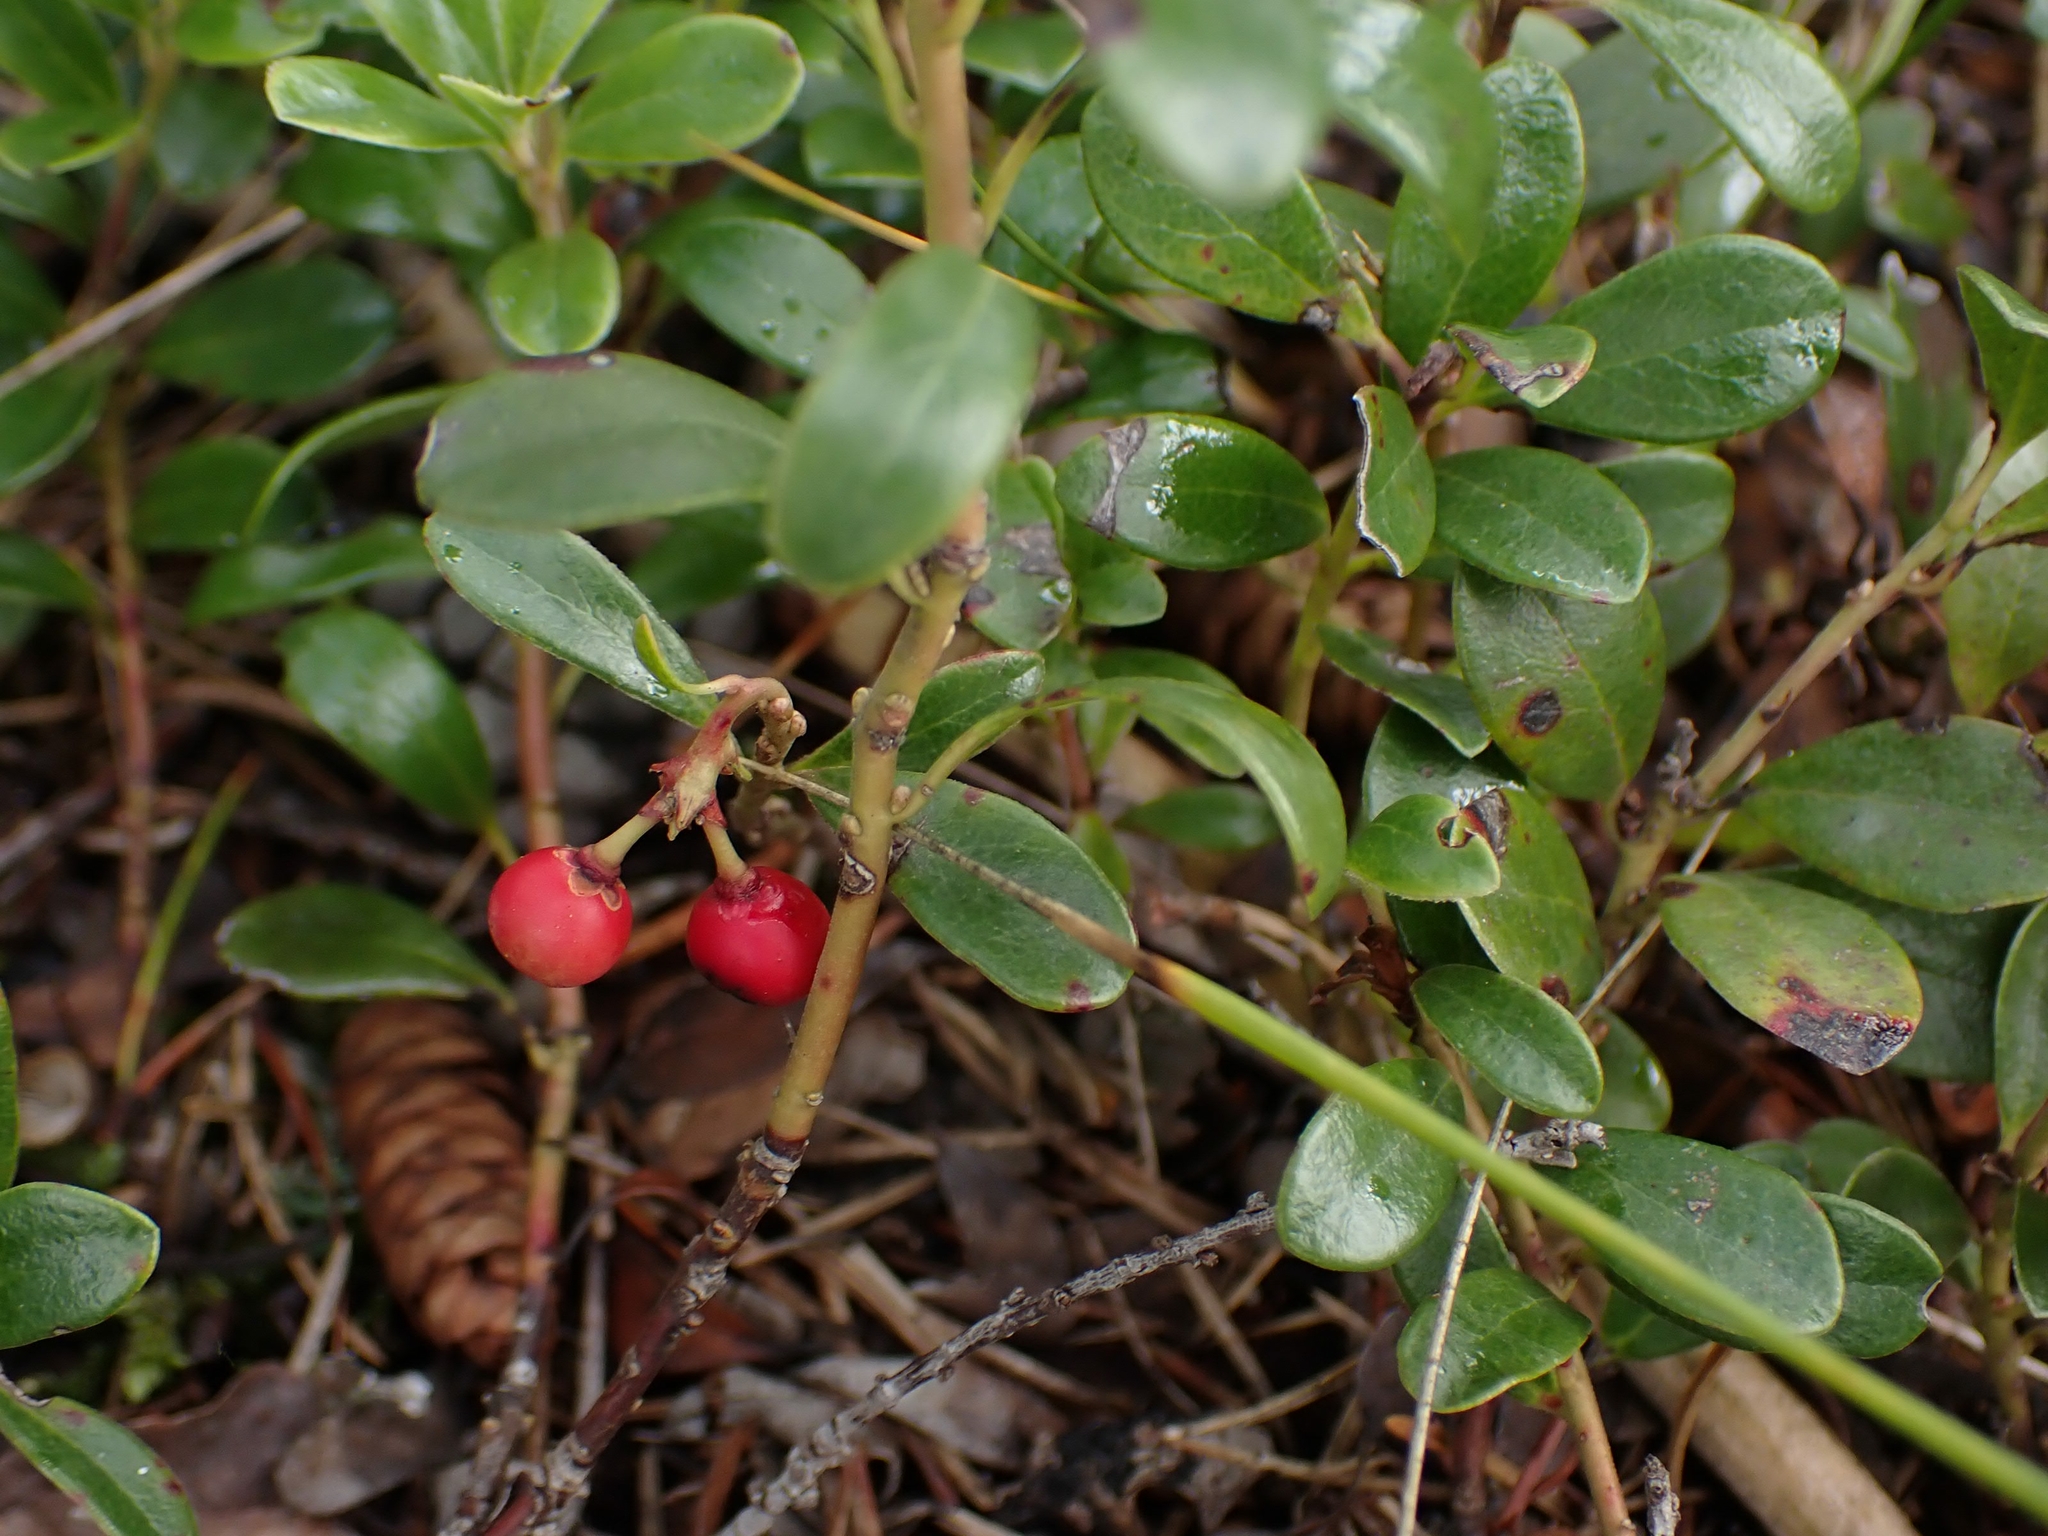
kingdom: Plantae
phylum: Tracheophyta
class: Magnoliopsida
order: Ericales
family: Ericaceae
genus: Arctostaphylos
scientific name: Arctostaphylos uva-ursi
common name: Bearberry
